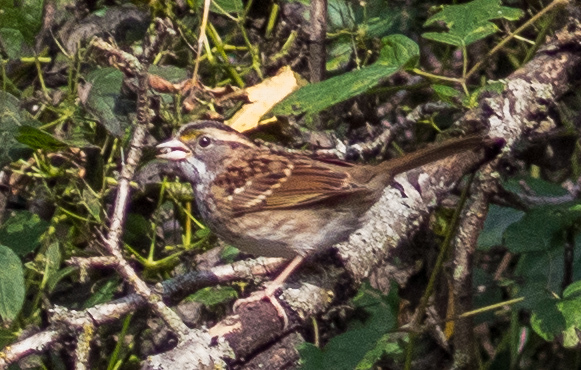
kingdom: Animalia
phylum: Chordata
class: Aves
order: Passeriformes
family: Passerellidae
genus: Zonotrichia
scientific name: Zonotrichia albicollis
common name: White-throated sparrow
